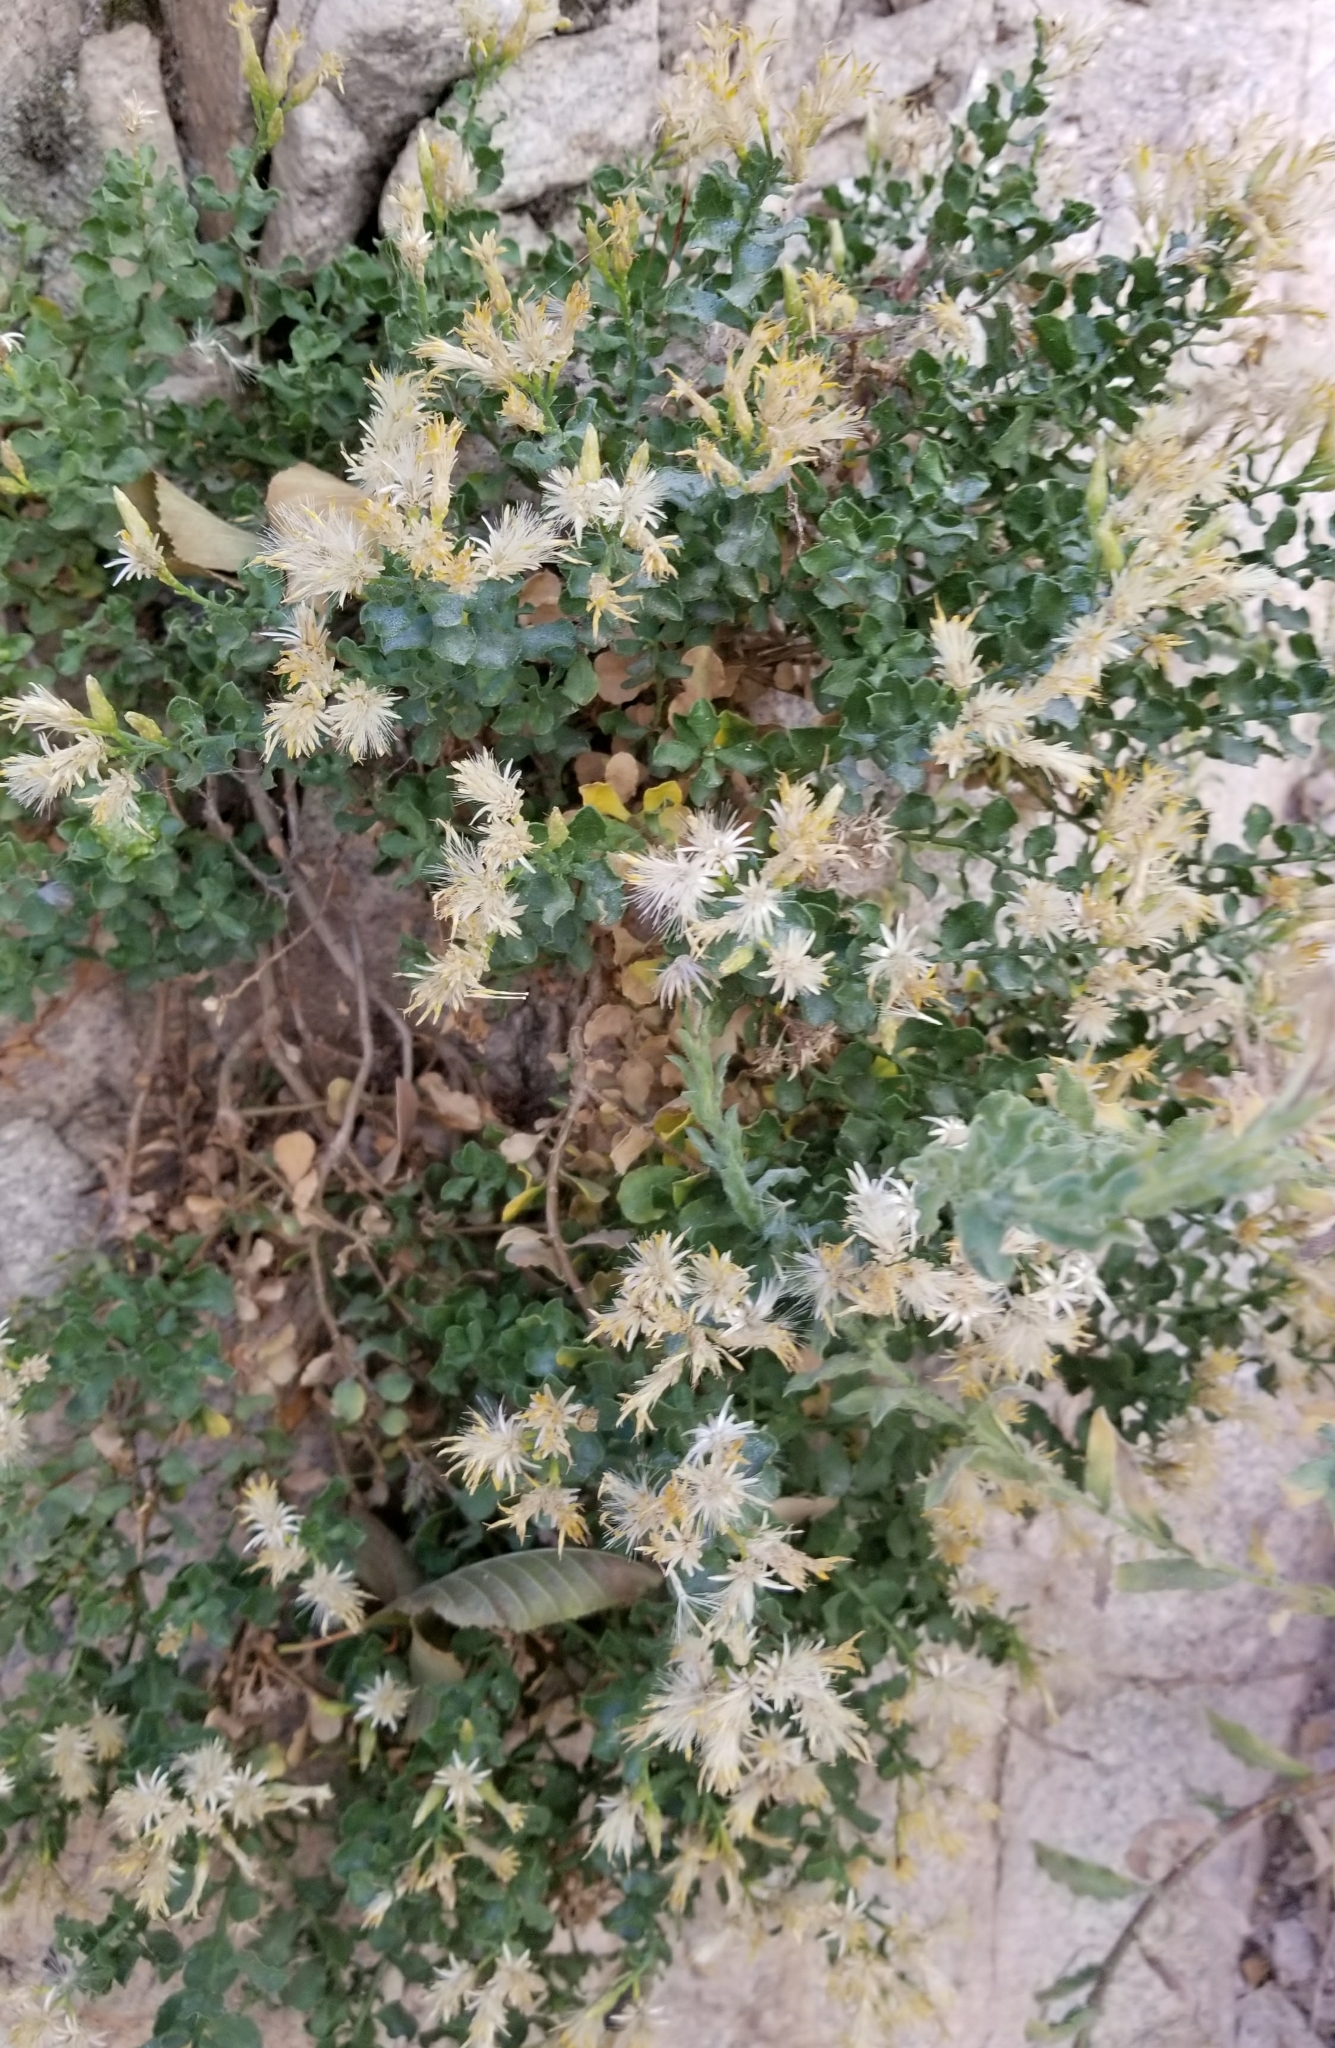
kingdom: Plantae
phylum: Tracheophyta
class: Magnoliopsida
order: Asterales
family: Asteraceae
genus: Ericameria
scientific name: Ericameria cuneata
